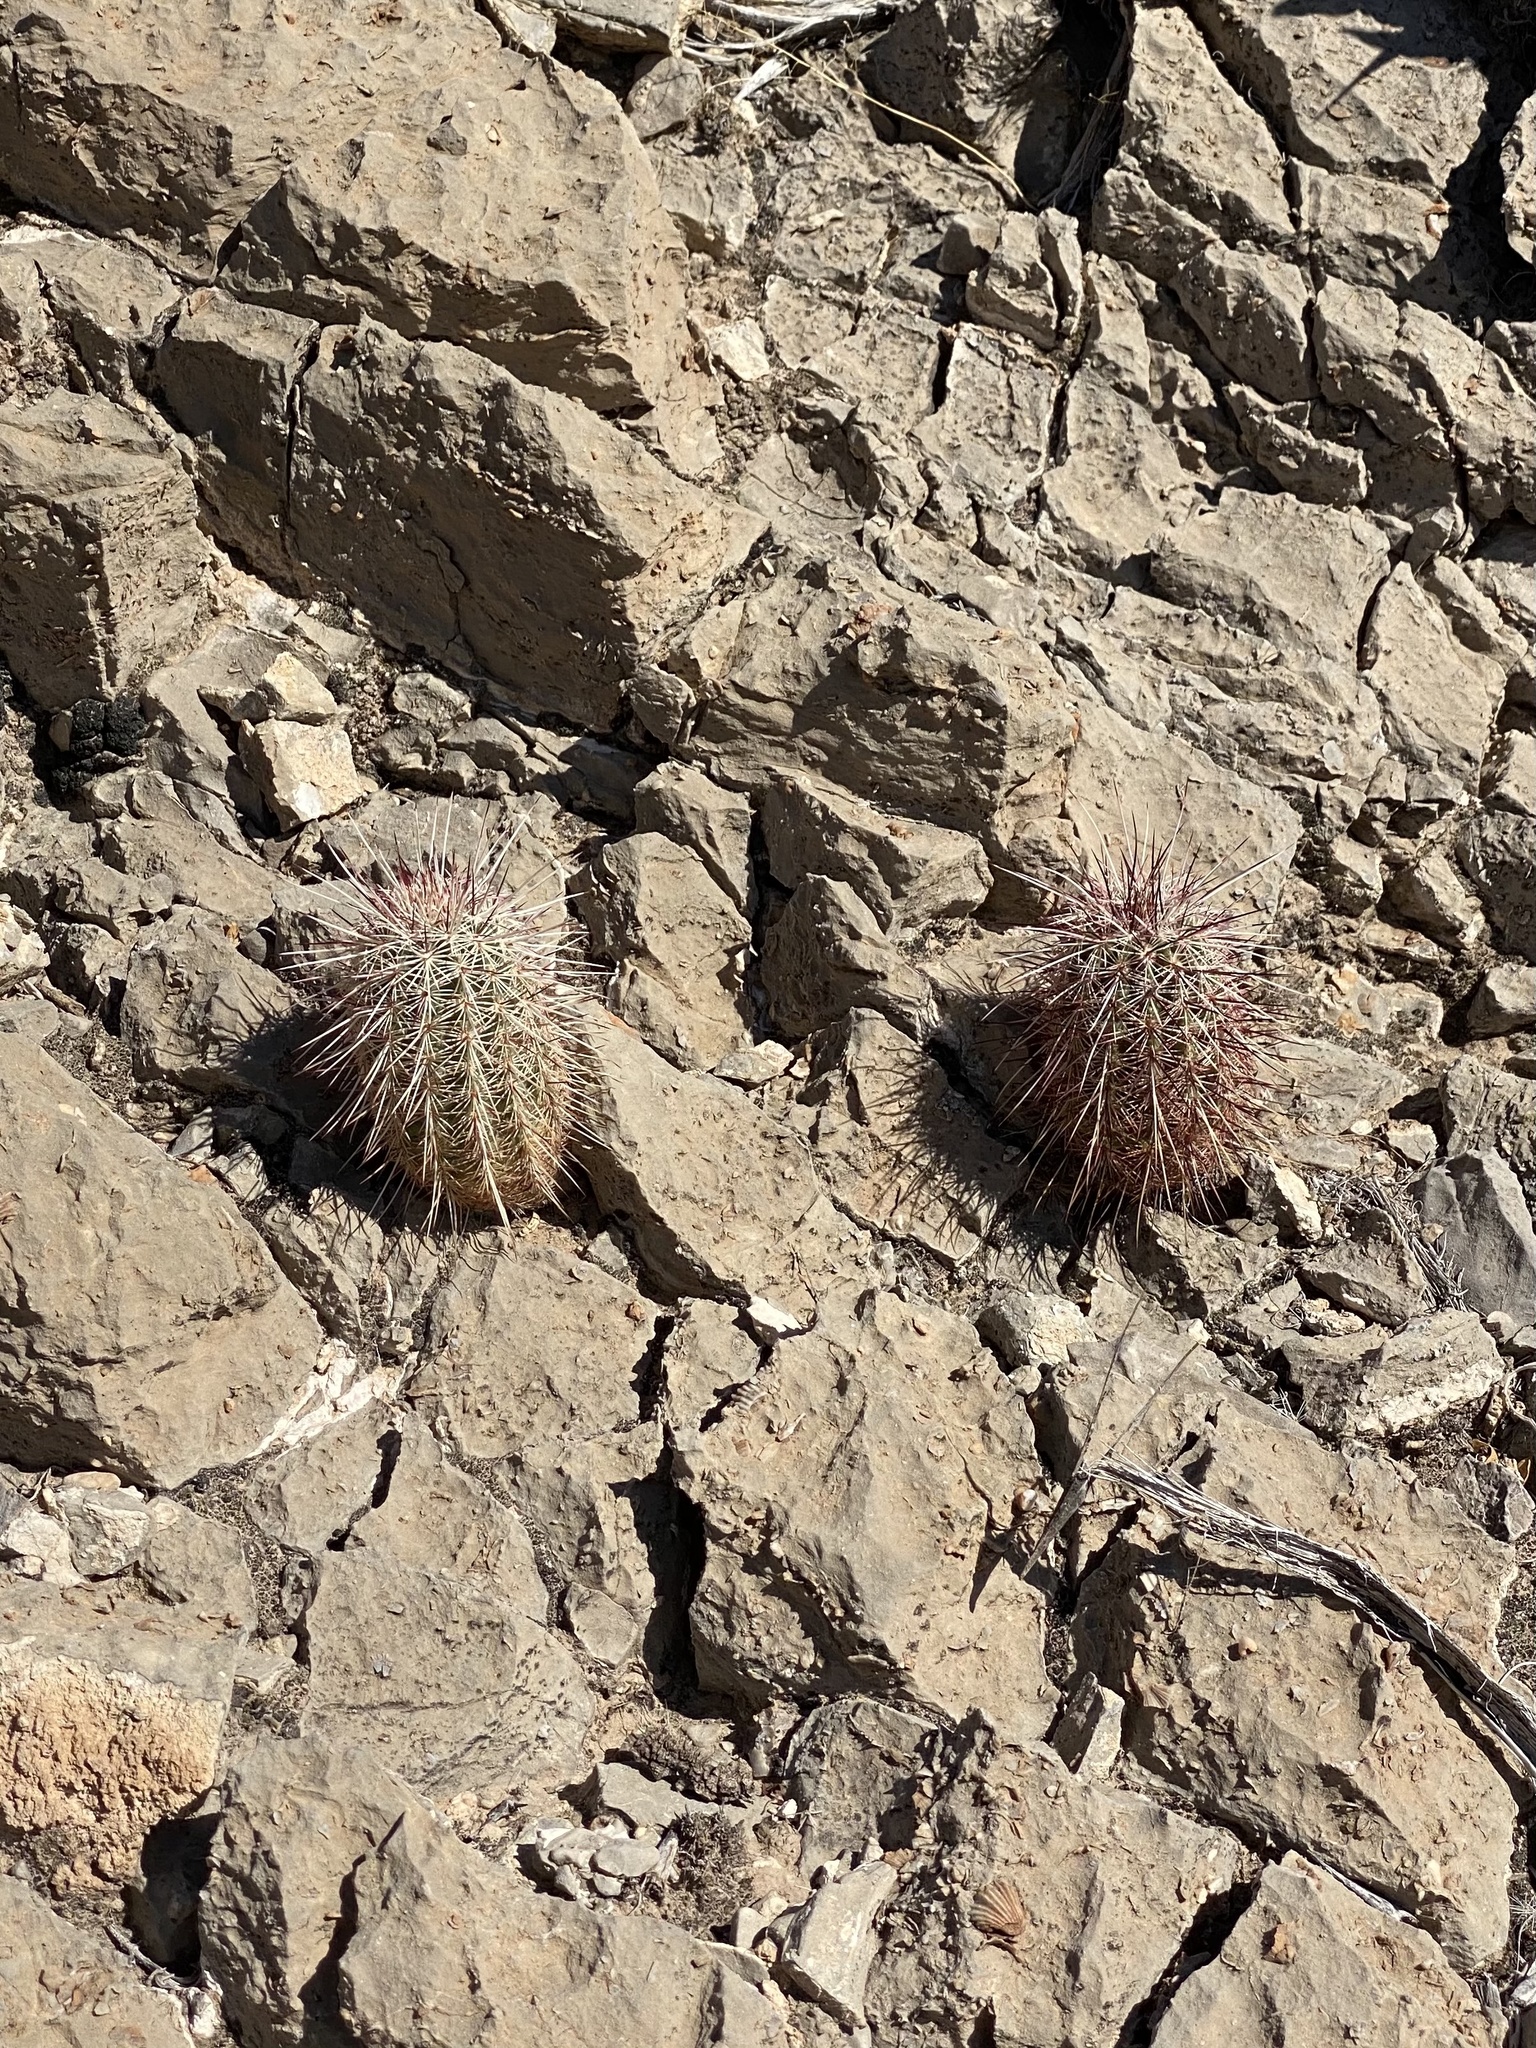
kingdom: Plantae
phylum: Tracheophyta
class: Magnoliopsida
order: Caryophyllales
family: Cactaceae
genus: Echinocereus
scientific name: Echinocereus viridiflorus
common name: Nylon hedgehog cactus
